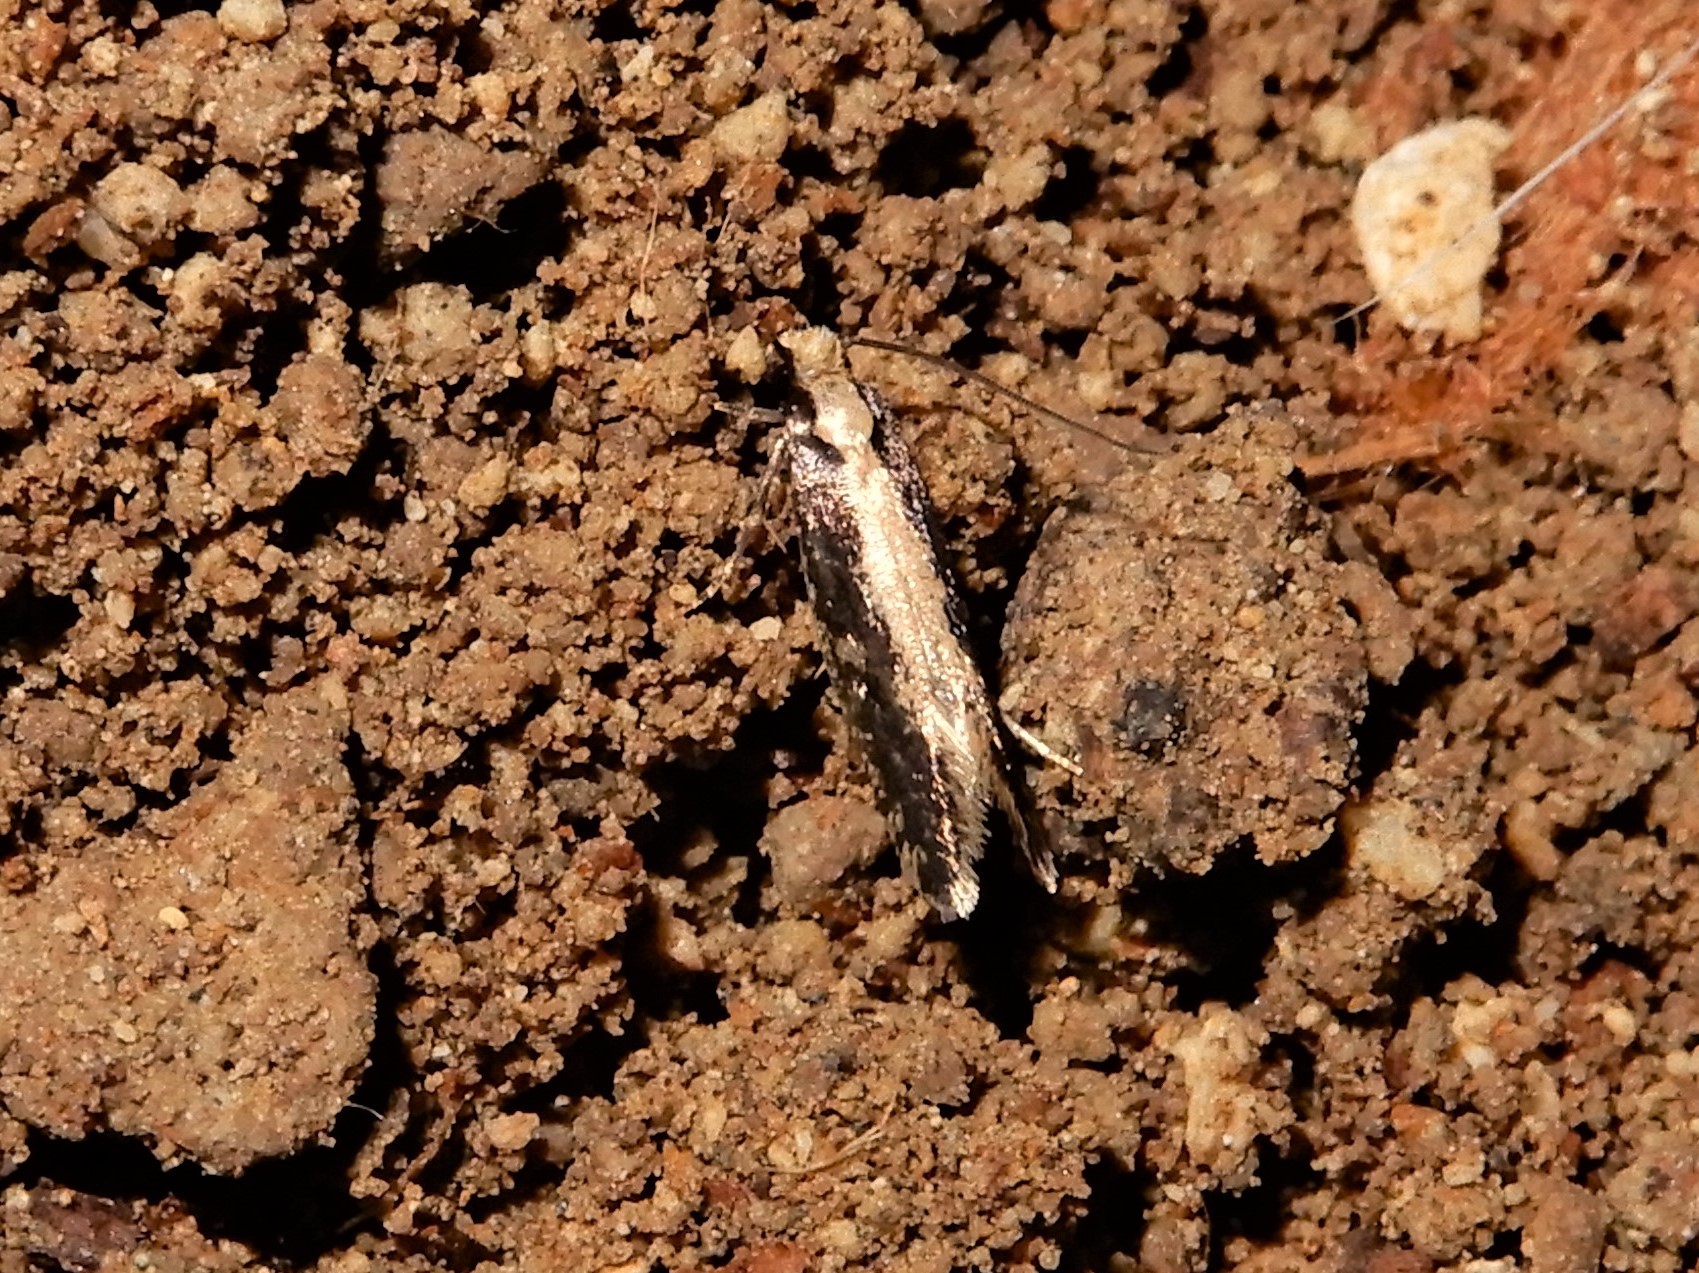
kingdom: Animalia
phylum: Arthropoda
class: Insecta
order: Lepidoptera
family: Tineidae
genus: Monopis
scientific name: Monopis crocicapitella
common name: Moth
